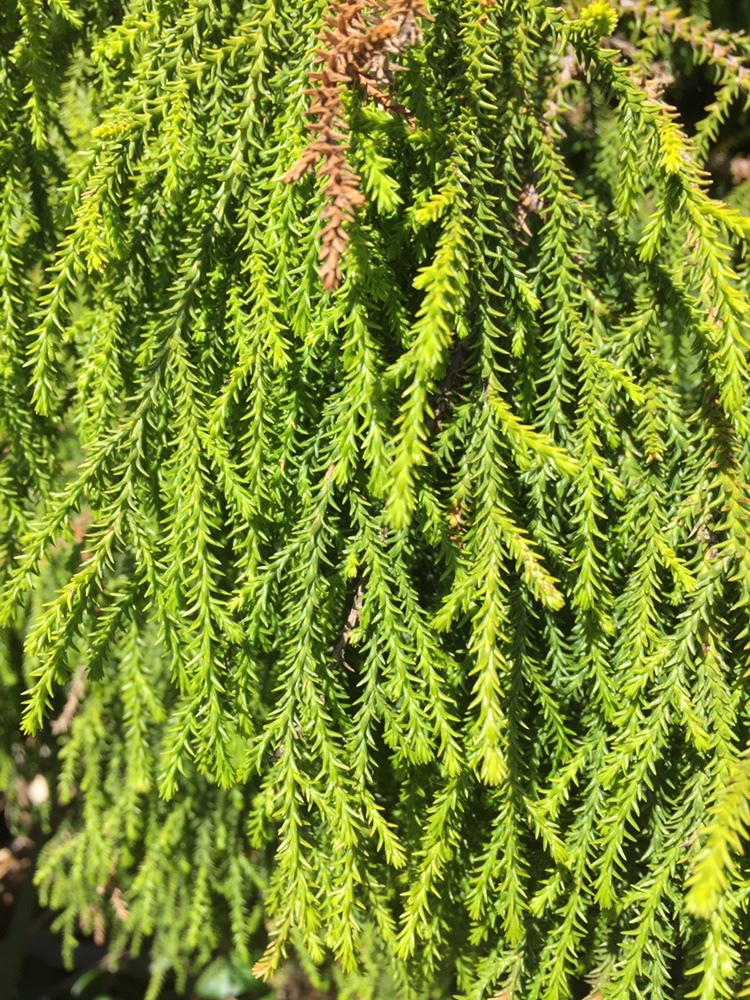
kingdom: Plantae
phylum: Tracheophyta
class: Pinopsida
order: Pinales
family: Podocarpaceae
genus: Dacrydium
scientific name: Dacrydium cupressinum
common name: Red pine
